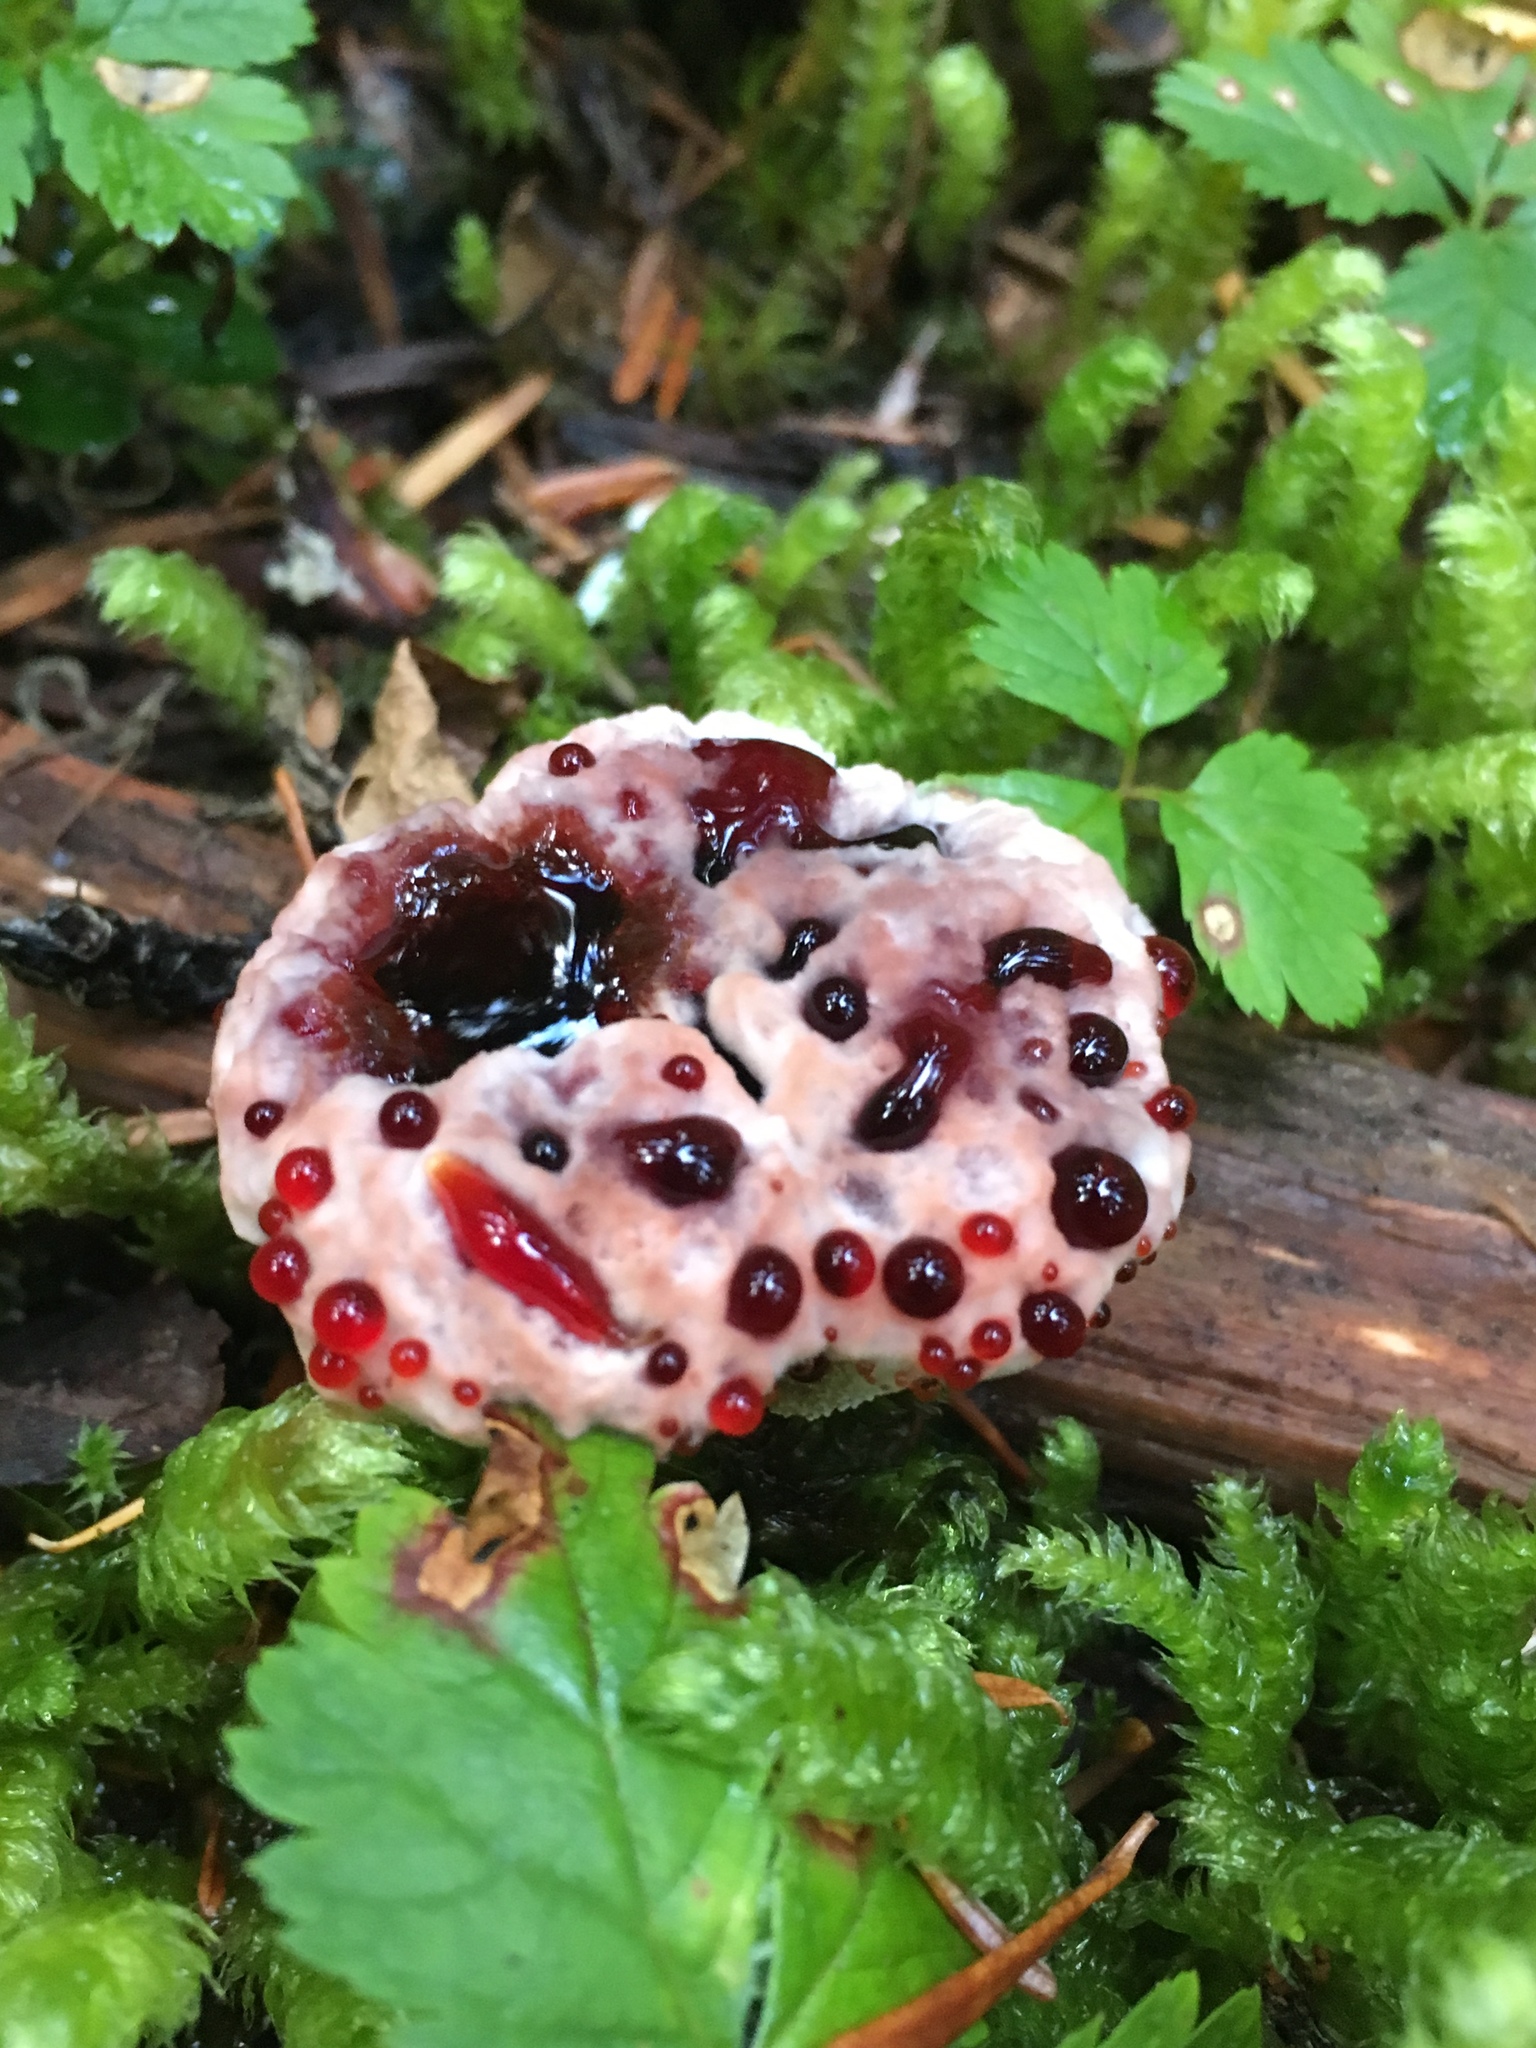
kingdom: Fungi
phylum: Basidiomycota
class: Agaricomycetes
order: Thelephorales
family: Bankeraceae
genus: Hydnellum
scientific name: Hydnellum peckii
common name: Devil's tooth
